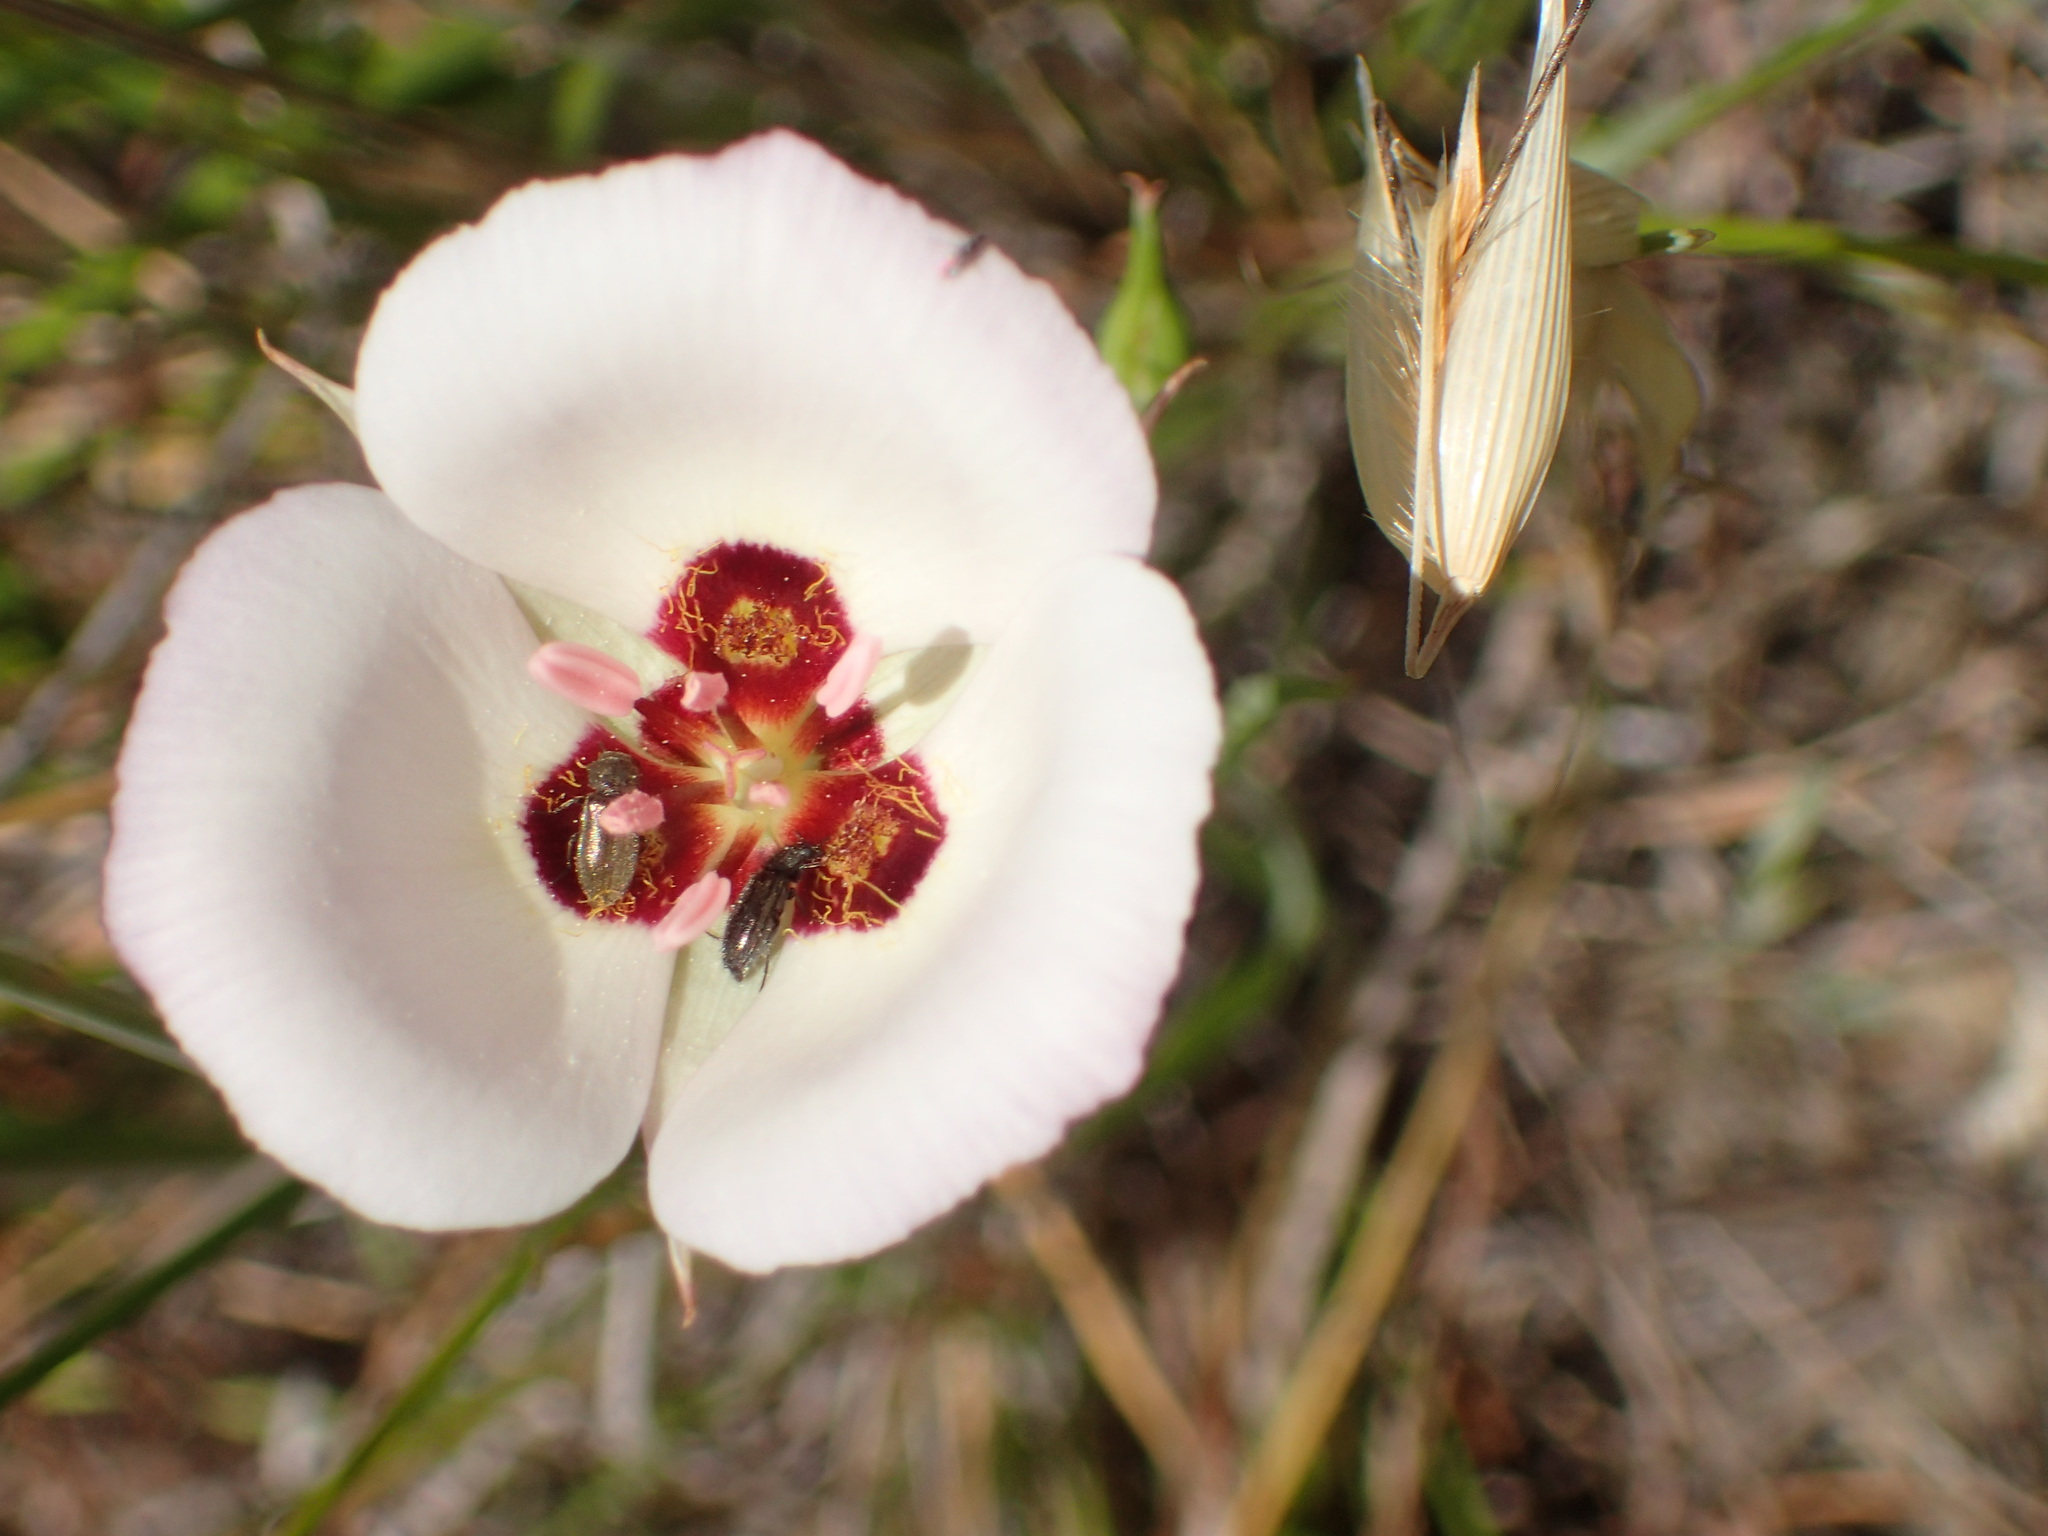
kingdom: Plantae
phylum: Tracheophyta
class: Liliopsida
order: Liliales
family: Liliaceae
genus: Calochortus
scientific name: Calochortus catalinae
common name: Catalina mariposa-lily
